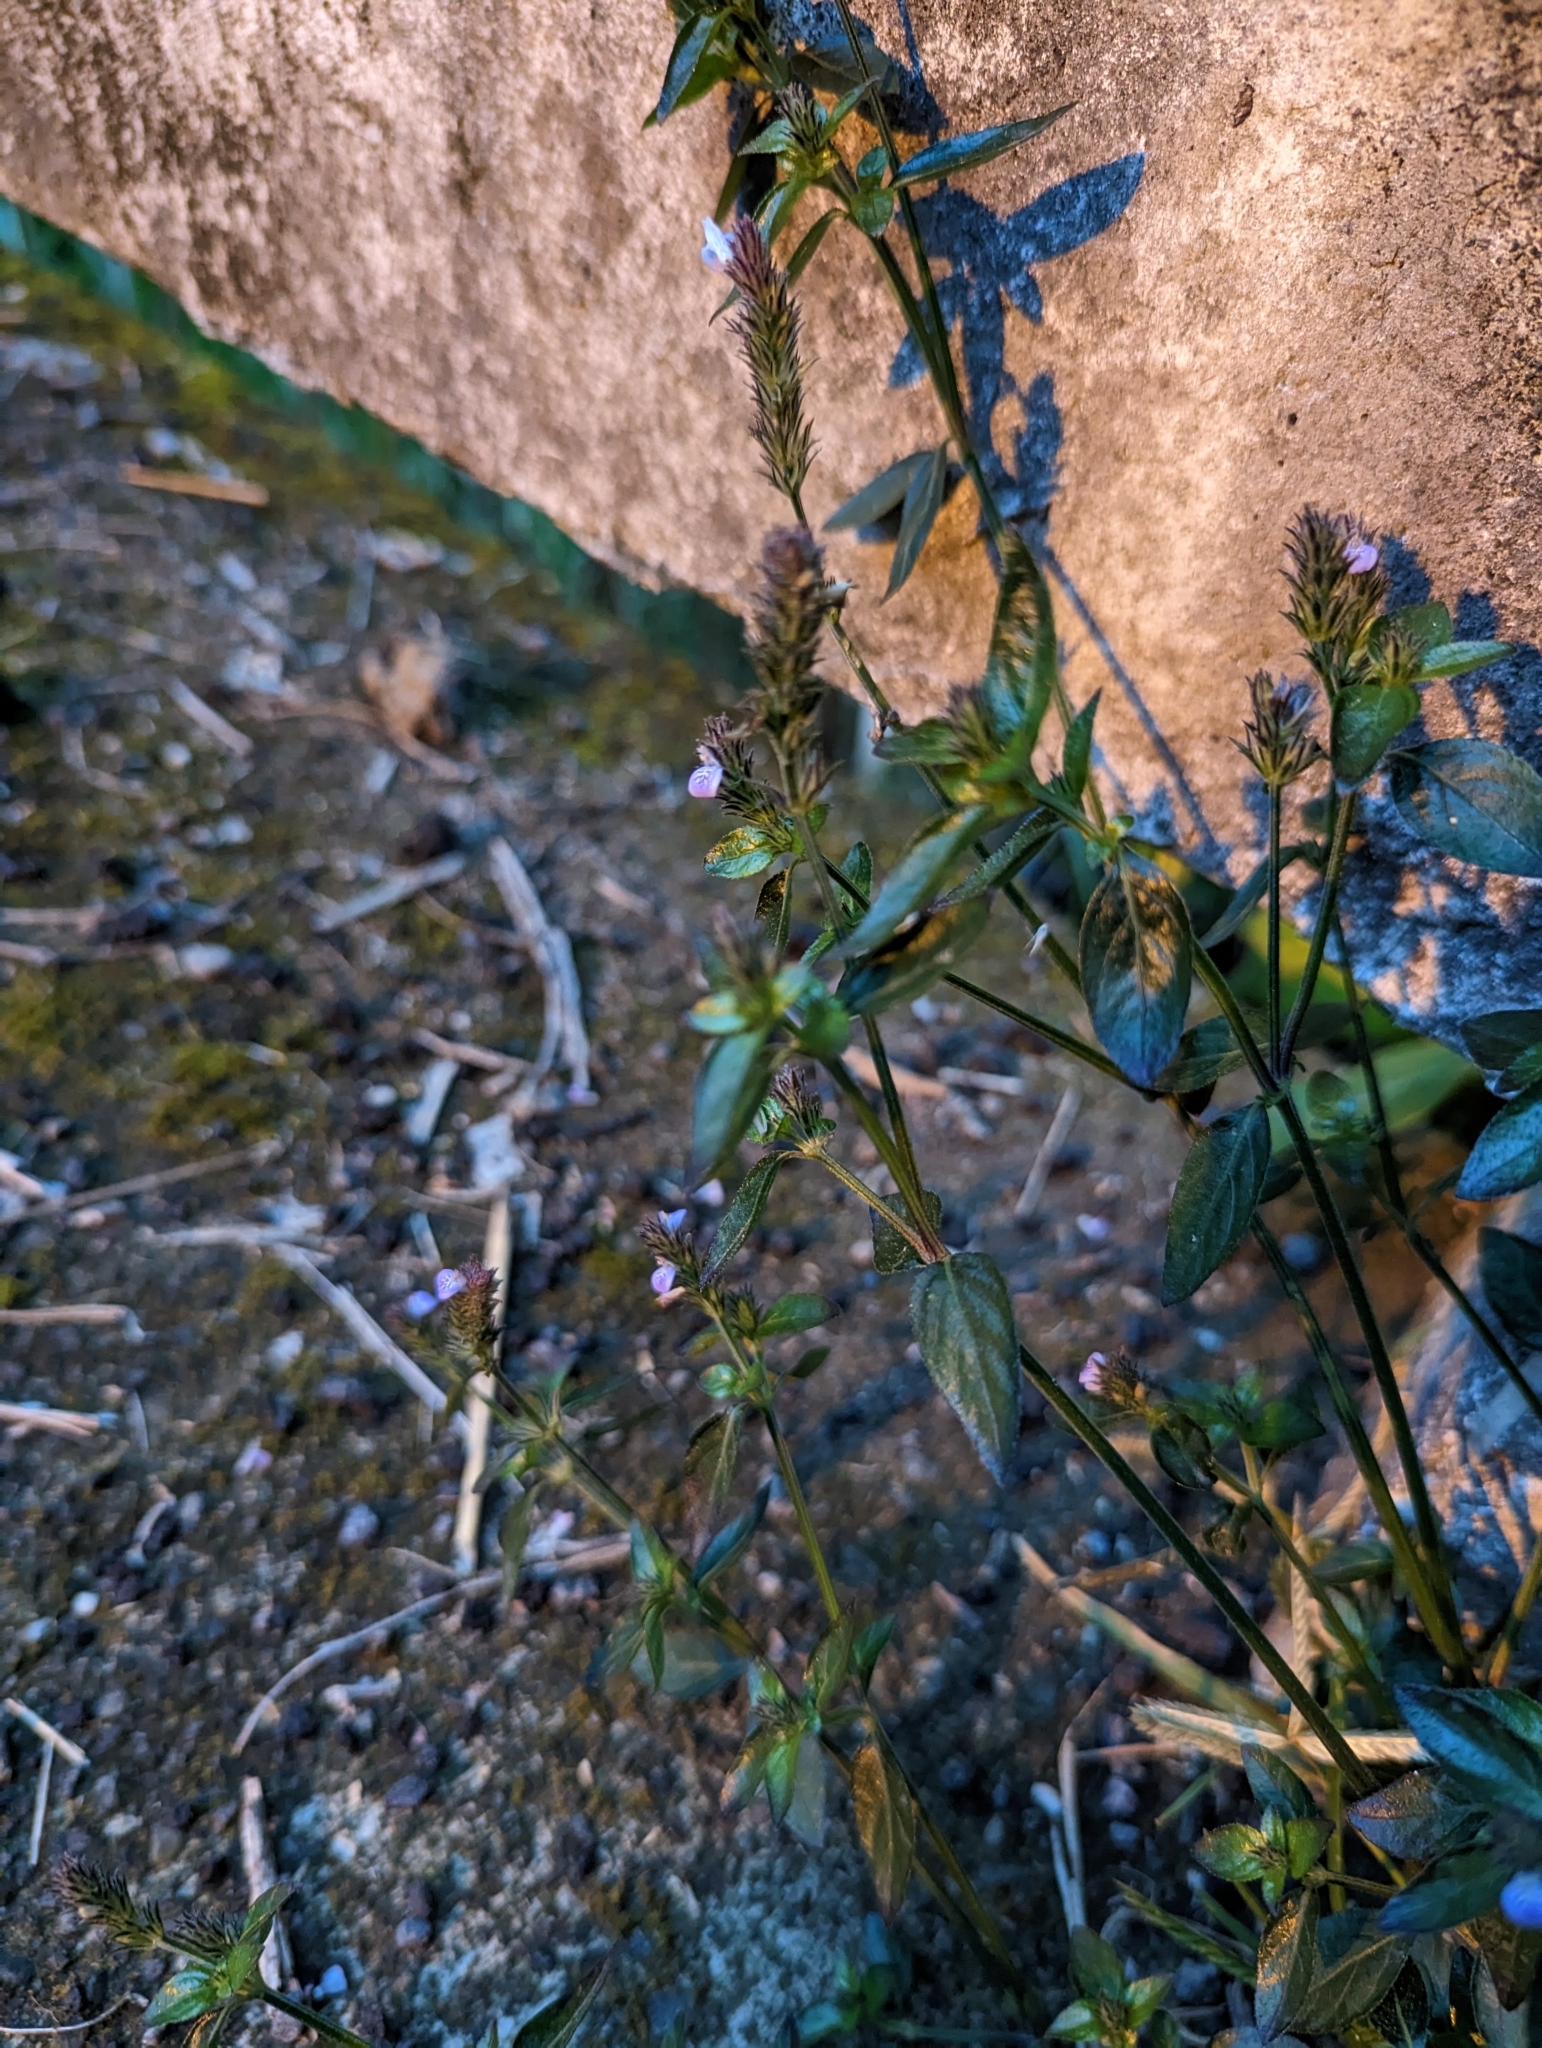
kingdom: Plantae
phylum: Tracheophyta
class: Magnoliopsida
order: Lamiales
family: Acanthaceae
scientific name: Acanthaceae
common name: Acanthaceae
